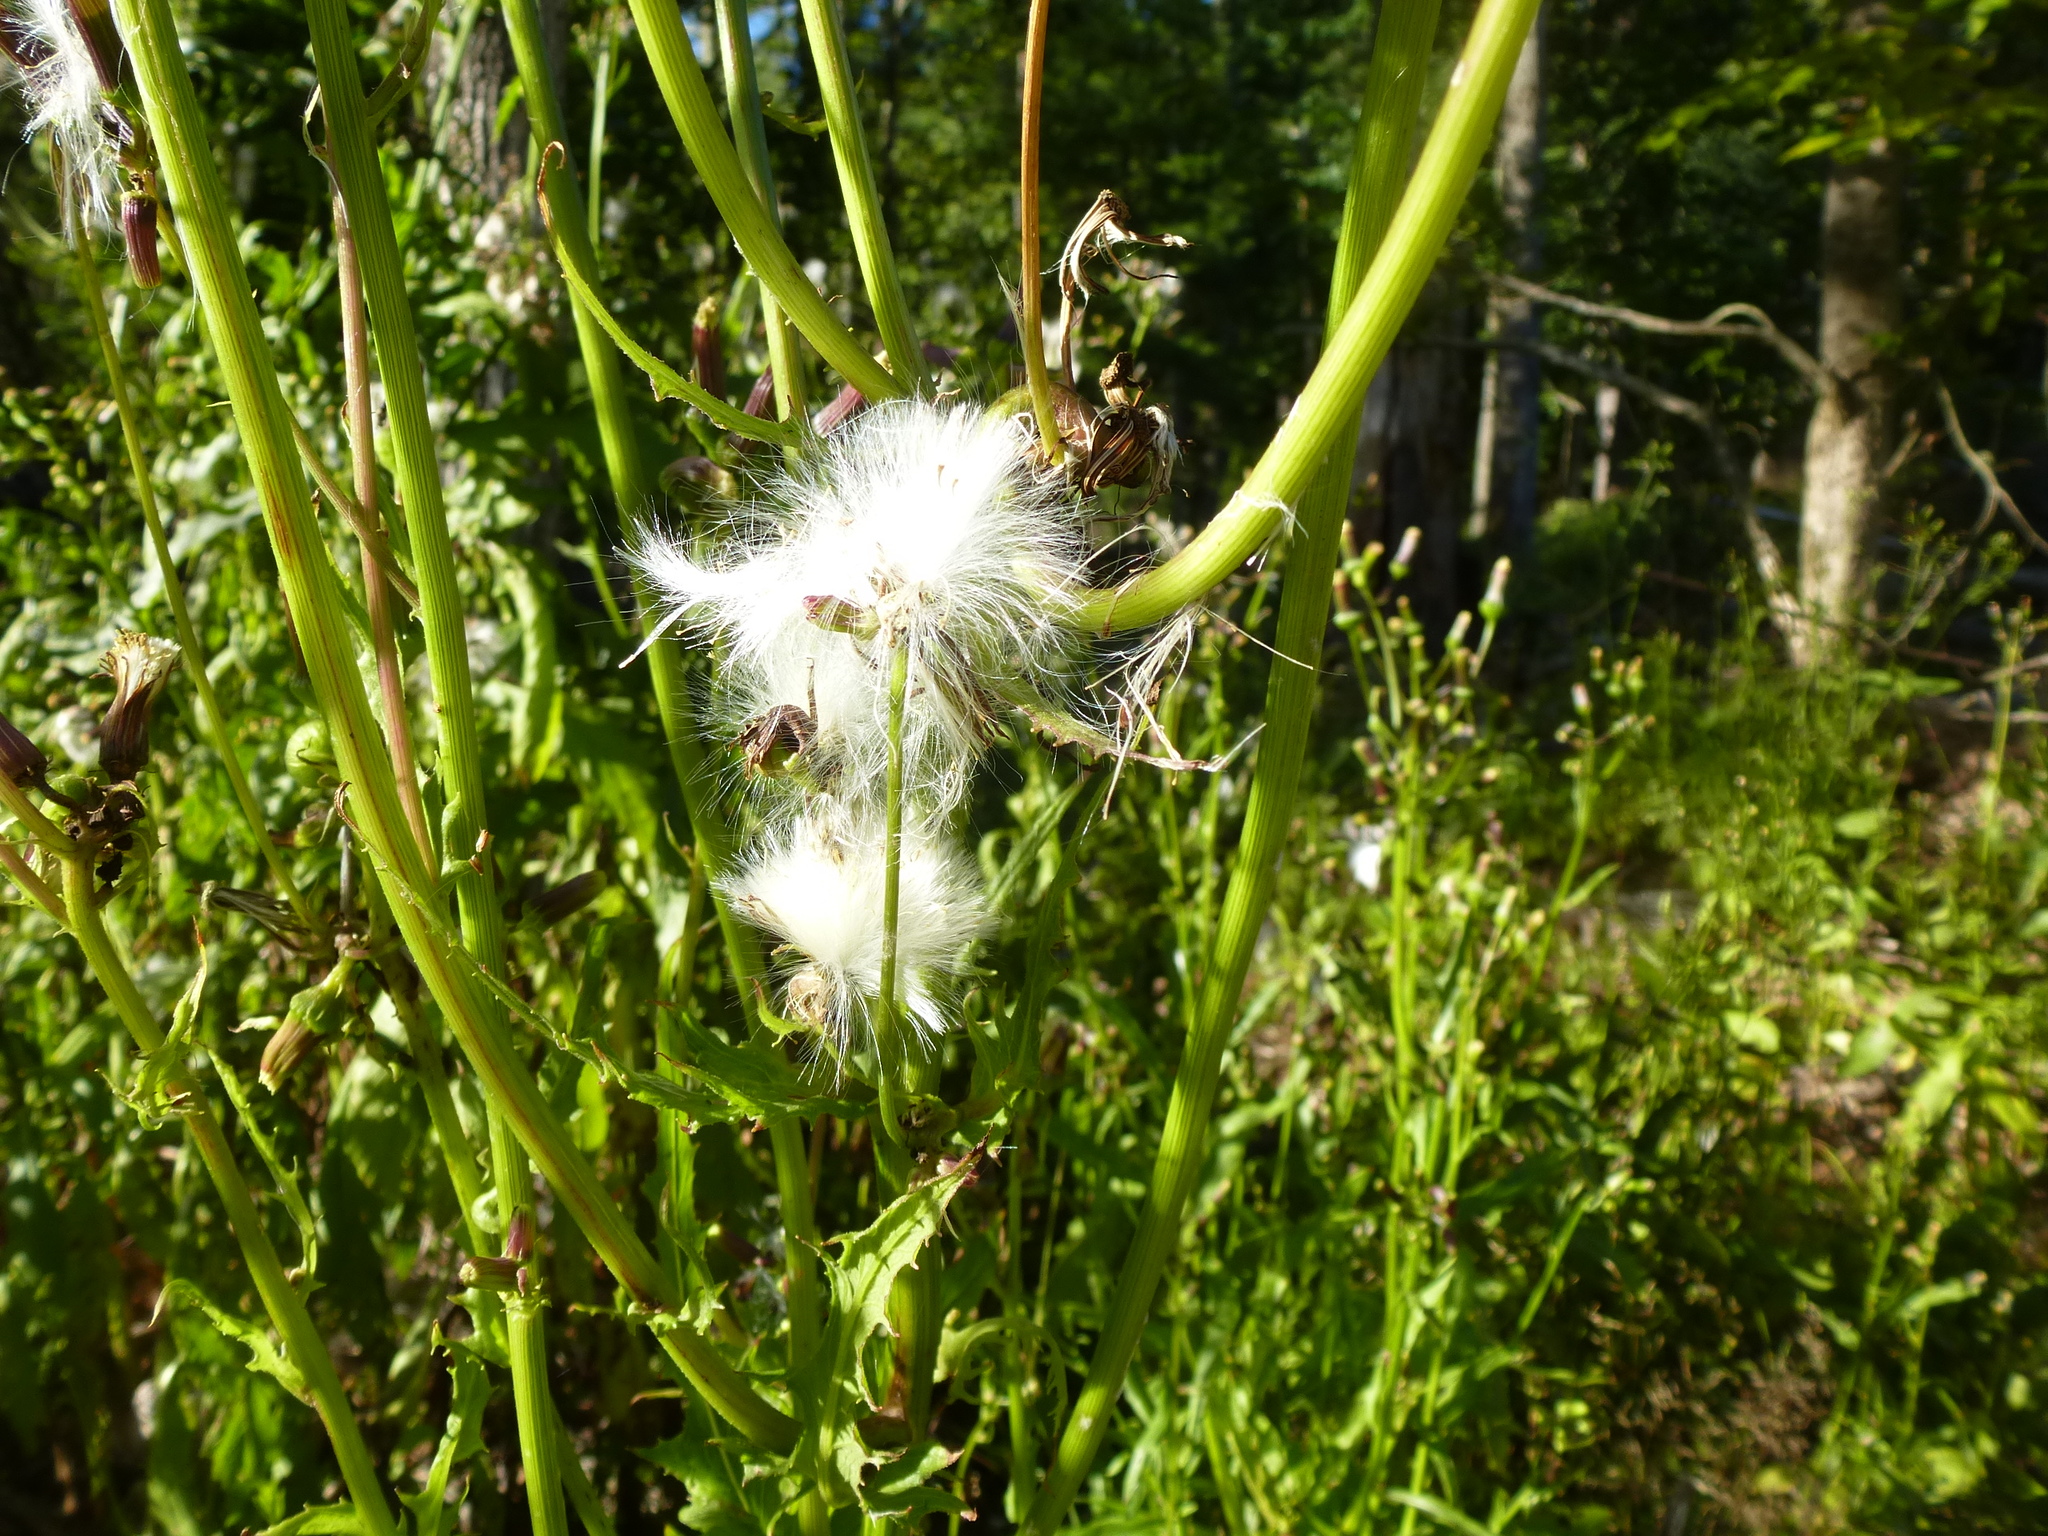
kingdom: Plantae
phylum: Tracheophyta
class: Magnoliopsida
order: Asterales
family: Asteraceae
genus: Erechtites
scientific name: Erechtites hieraciifolius
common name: American burnweed
